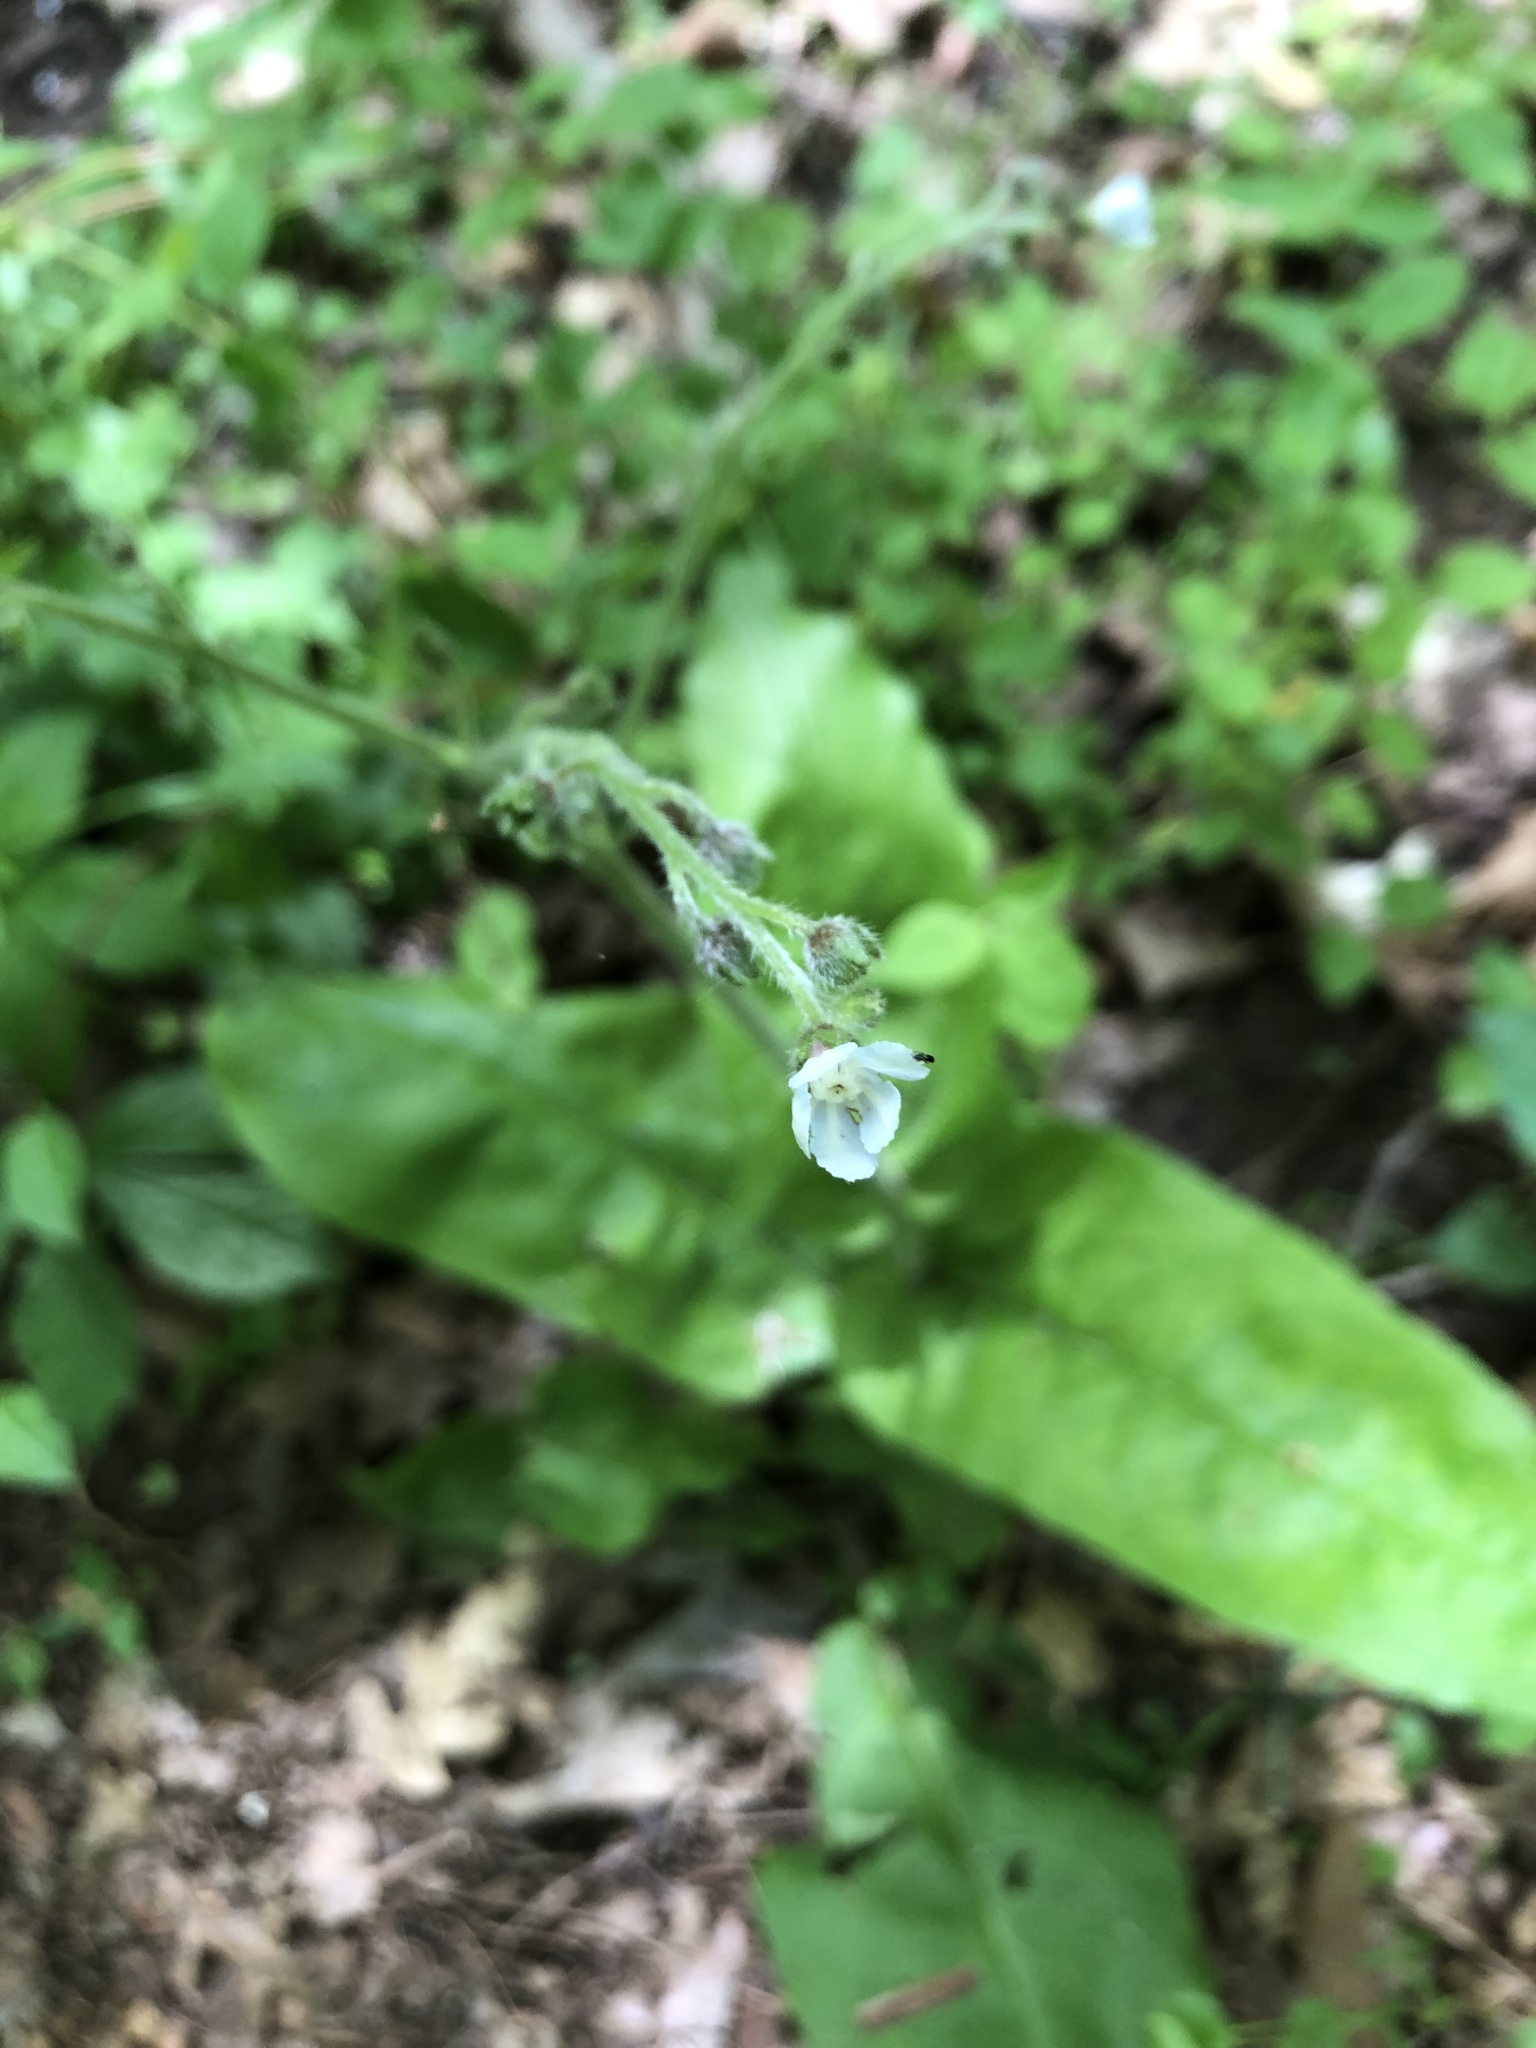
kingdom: Plantae
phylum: Tracheophyta
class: Magnoliopsida
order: Boraginales
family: Boraginaceae
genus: Andersonglossum
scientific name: Andersonglossum virginianum
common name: Wild comfrey
